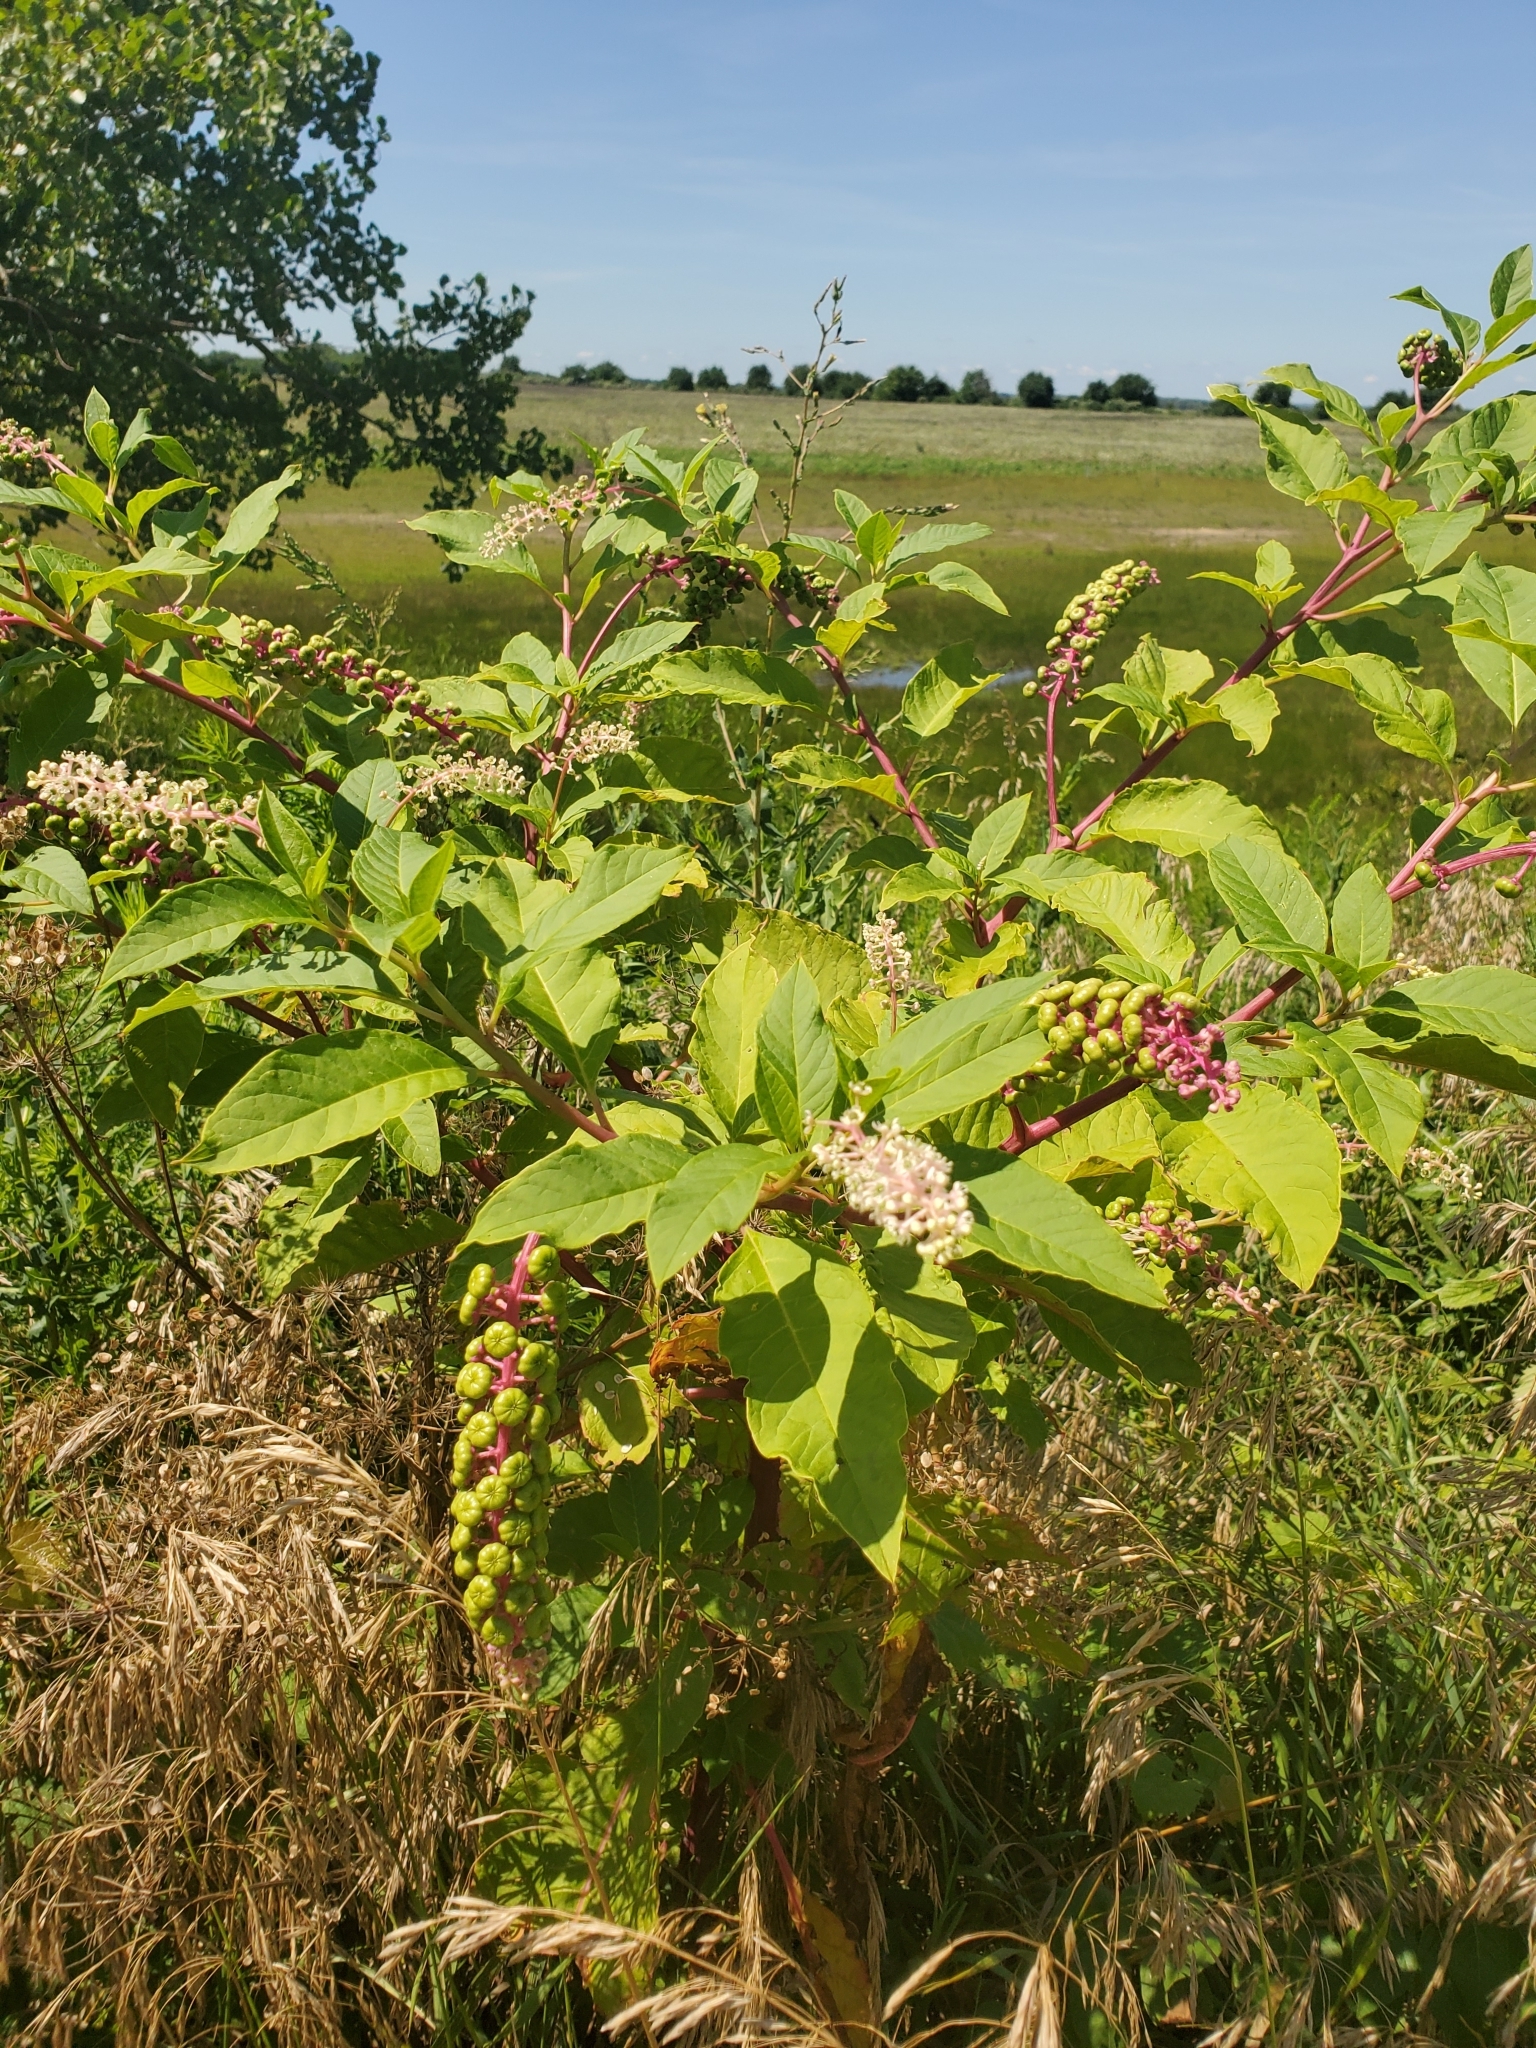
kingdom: Plantae
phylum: Tracheophyta
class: Magnoliopsida
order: Caryophyllales
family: Phytolaccaceae
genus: Phytolacca
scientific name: Phytolacca americana
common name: American pokeweed
